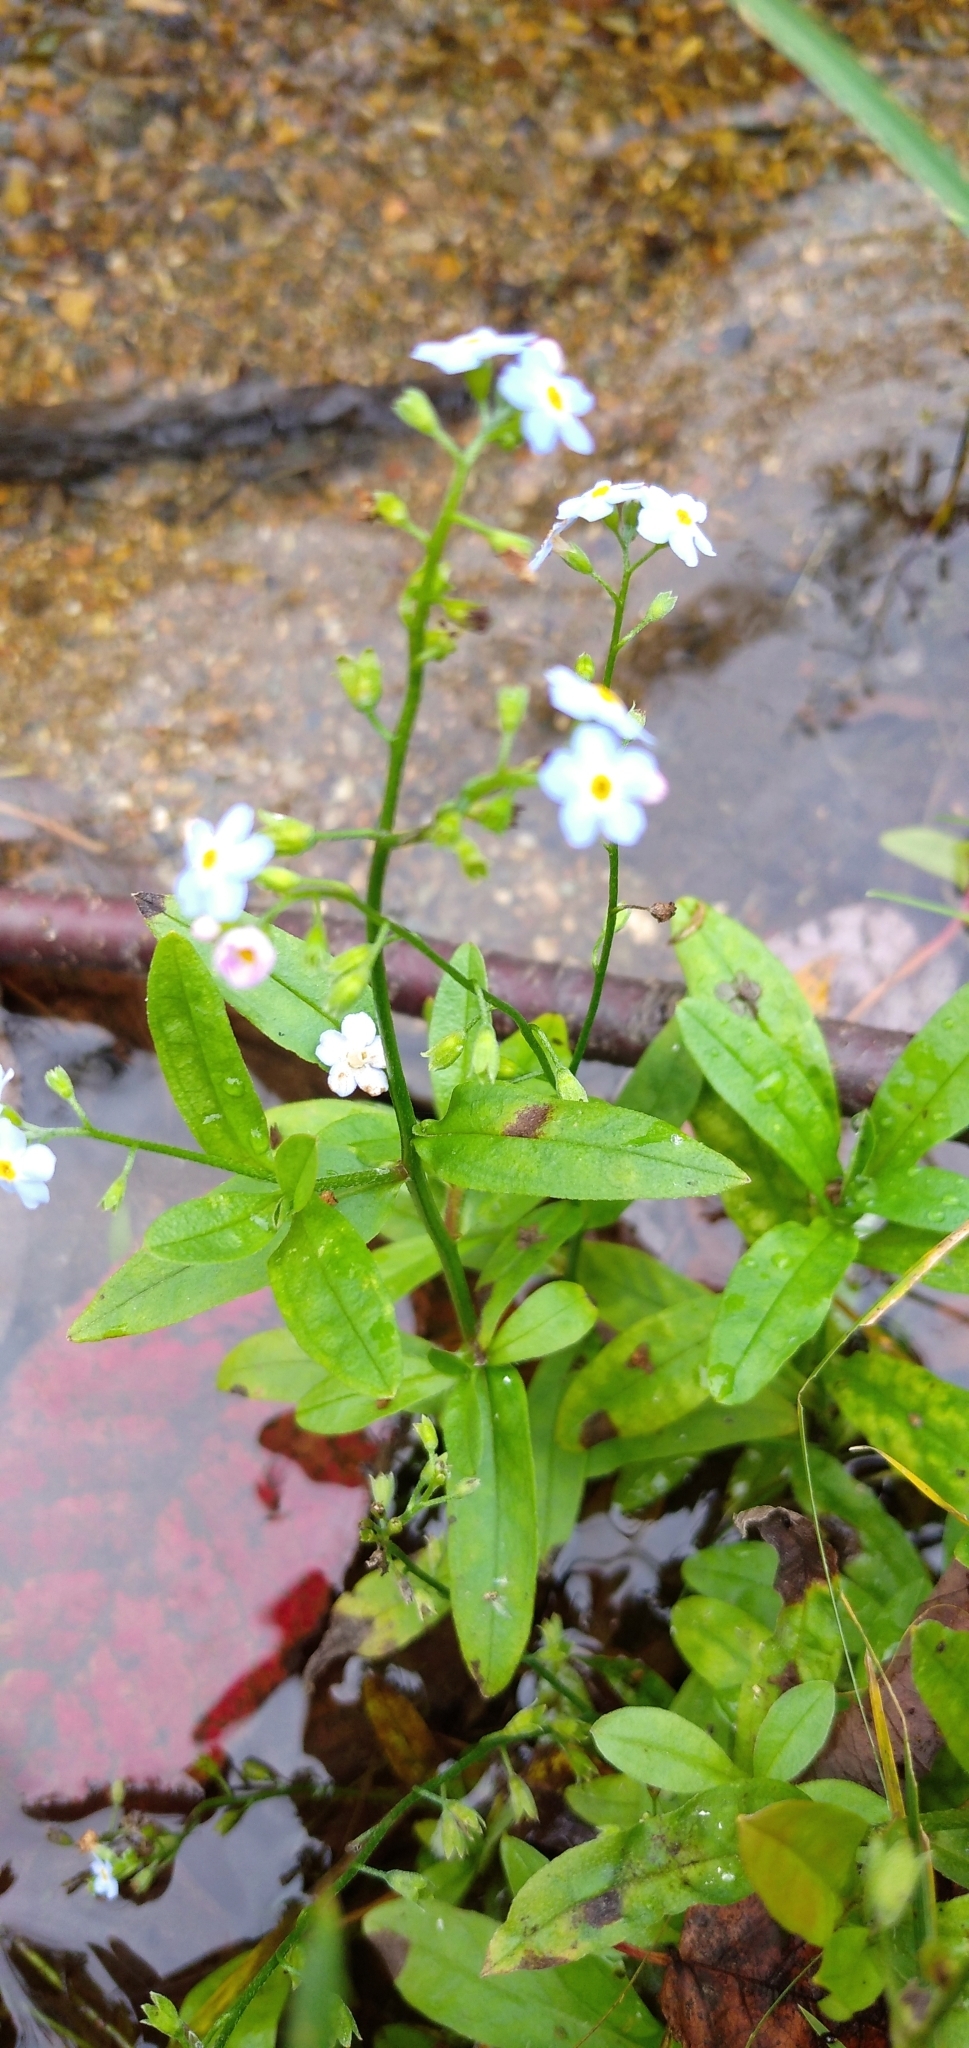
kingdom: Plantae
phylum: Tracheophyta
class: Magnoliopsida
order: Boraginales
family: Boraginaceae
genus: Myosotis
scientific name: Myosotis scorpioides
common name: Water forget-me-not
